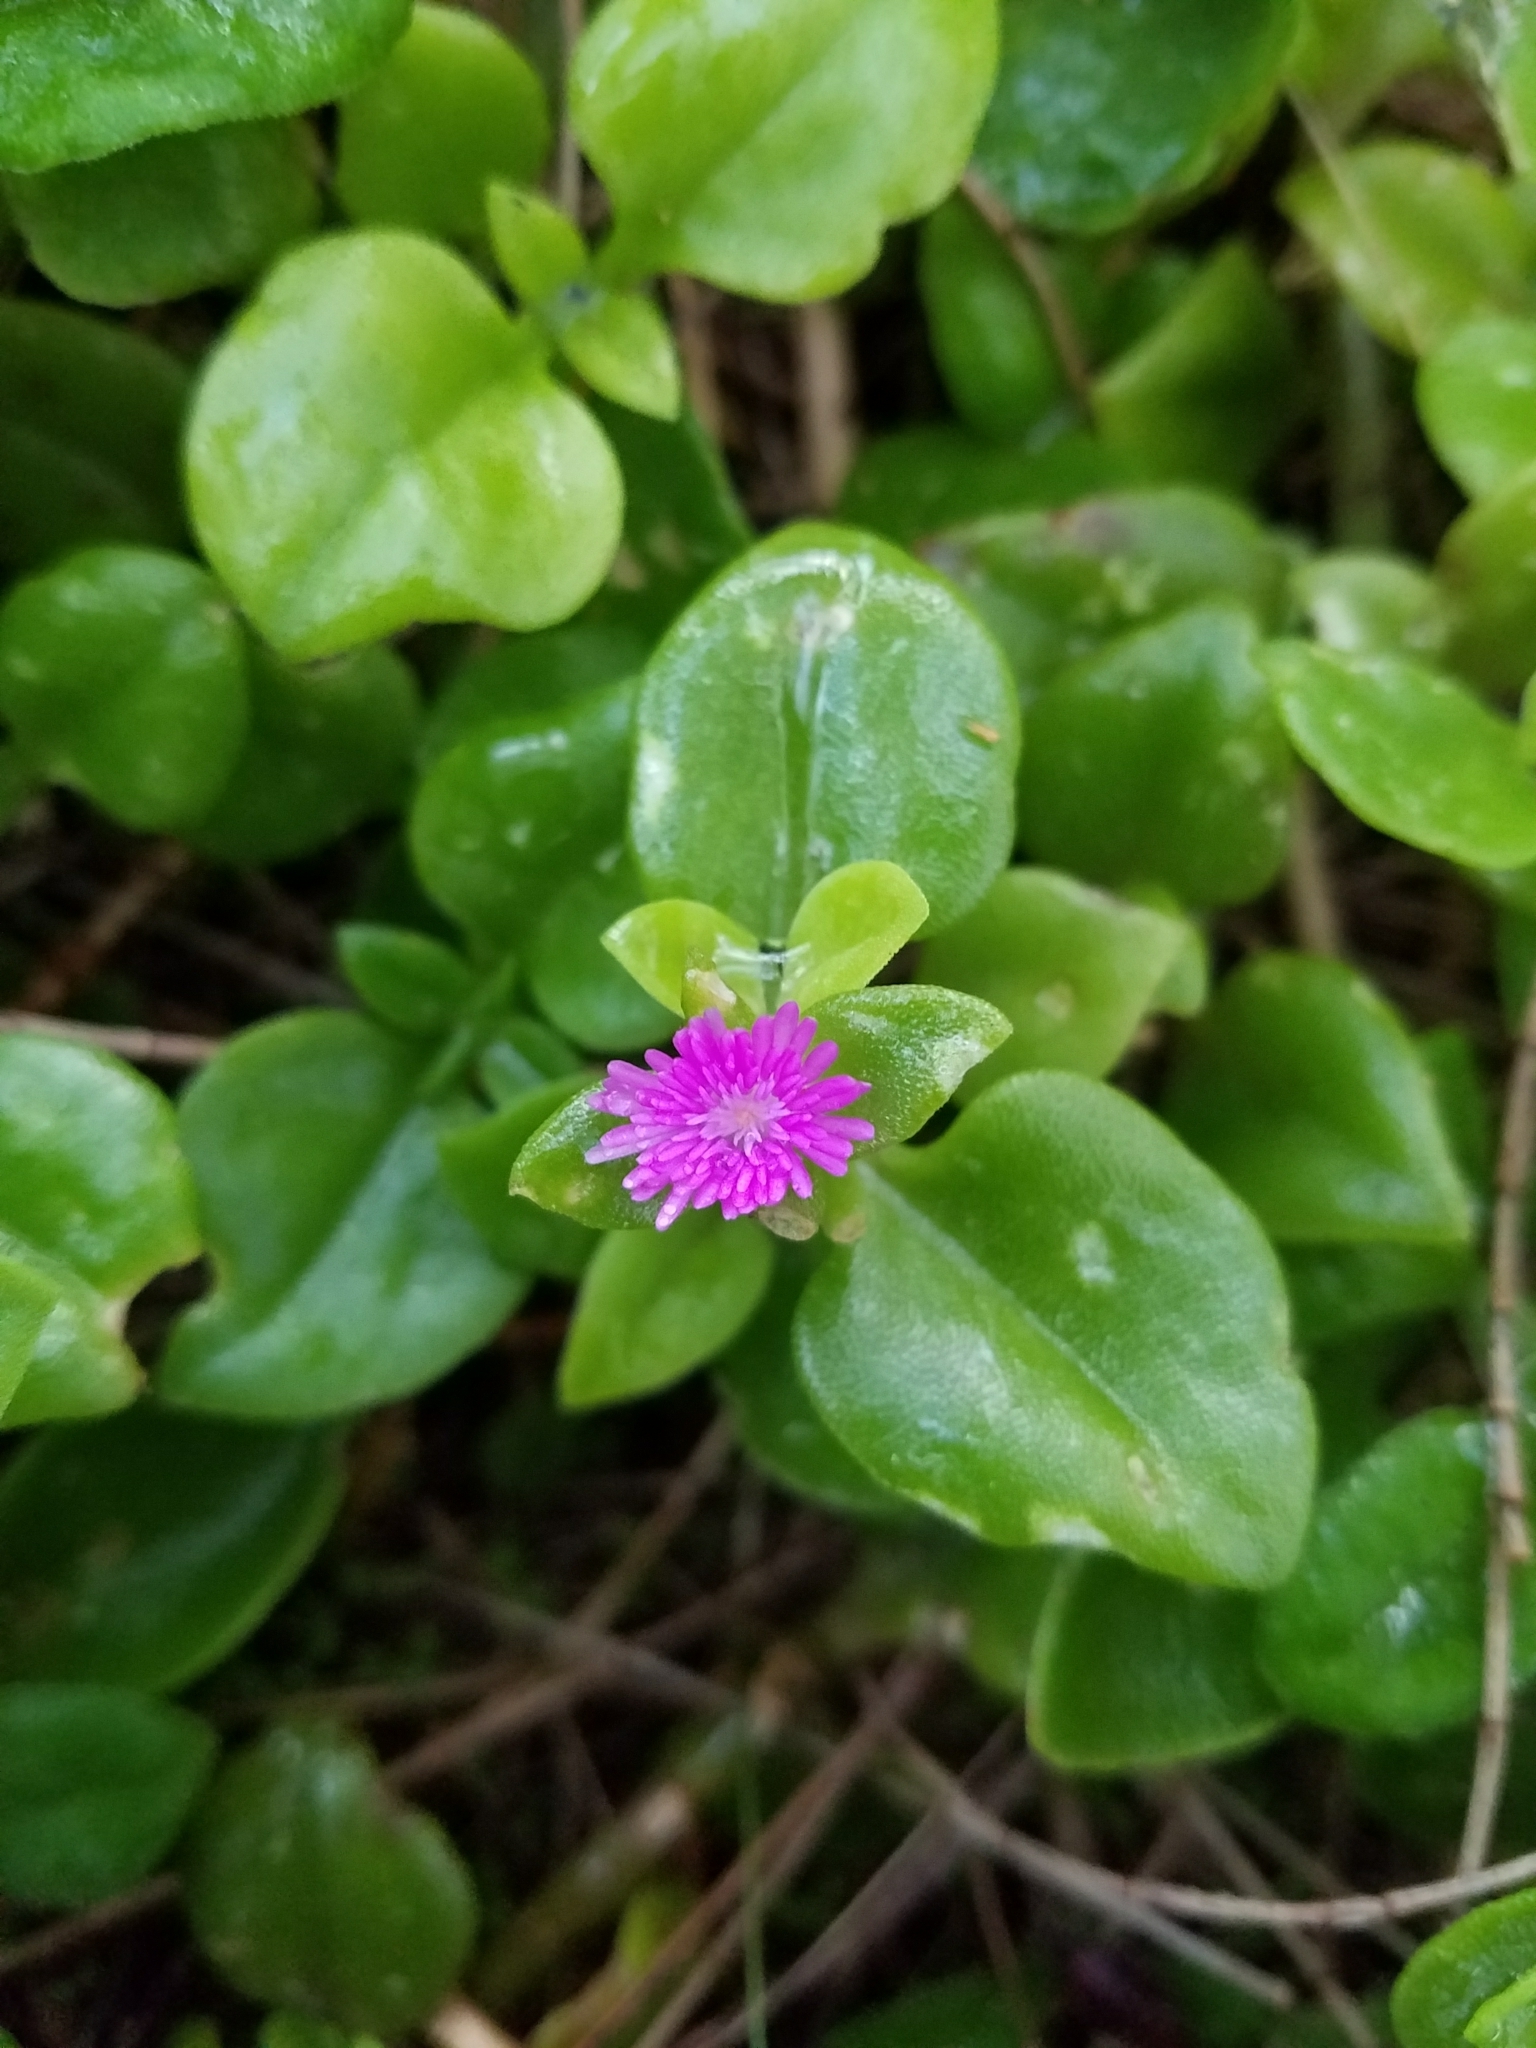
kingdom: Plantae
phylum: Tracheophyta
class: Magnoliopsida
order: Caryophyllales
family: Aizoaceae
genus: Mesembryanthemum
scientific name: Mesembryanthemum cordifolium
